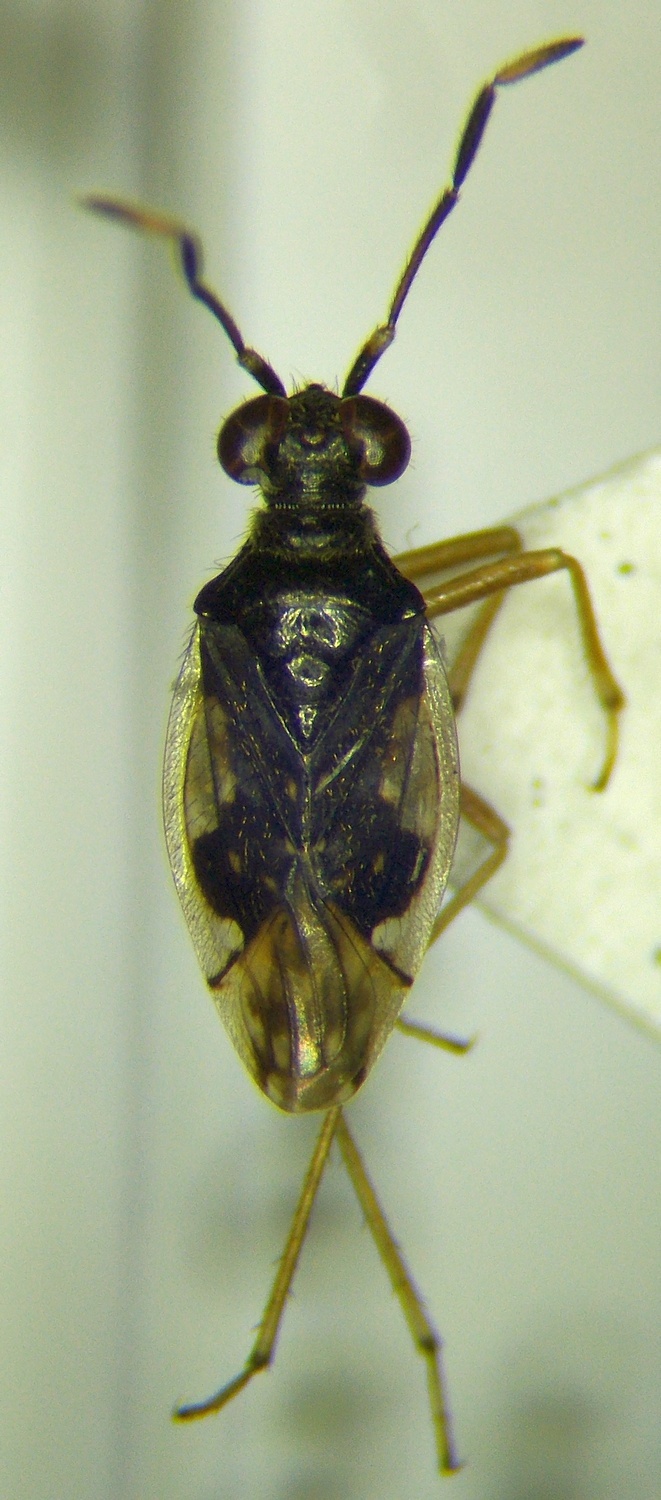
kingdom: Animalia
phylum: Arthropoda
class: Insecta
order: Hemiptera
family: Saldidae
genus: Chartoscirta
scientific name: Chartoscirta elegantula
